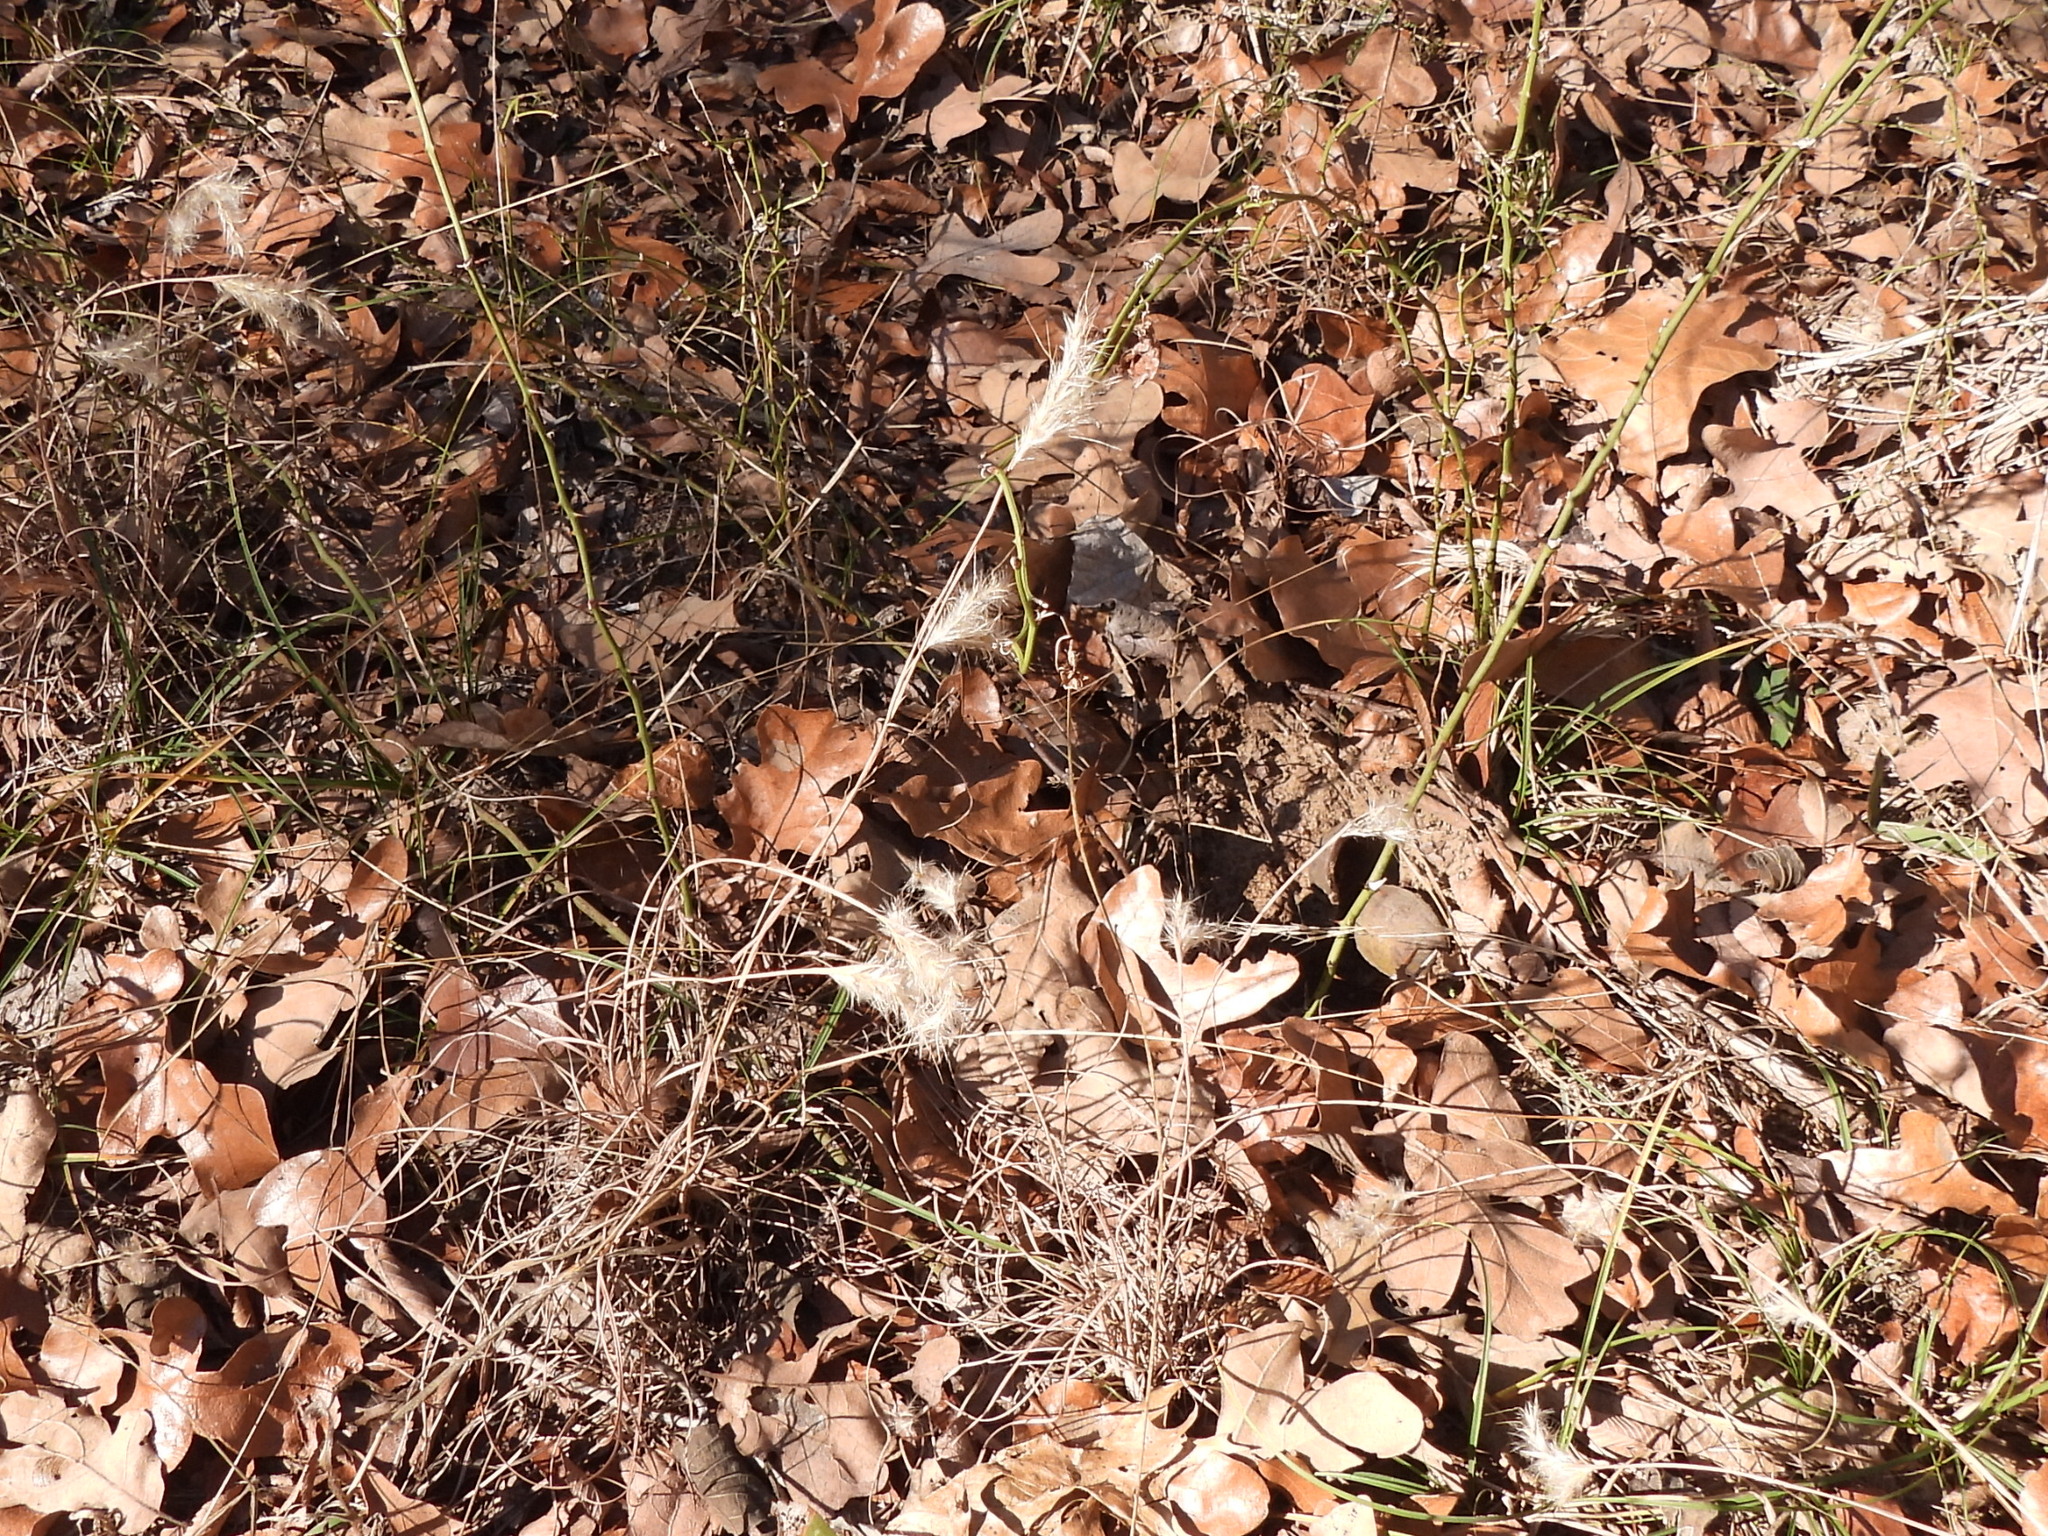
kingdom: Plantae
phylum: Tracheophyta
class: Liliopsida
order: Poales
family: Poaceae
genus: Andropogon
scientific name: Andropogon ternarius
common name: Split bluestem
